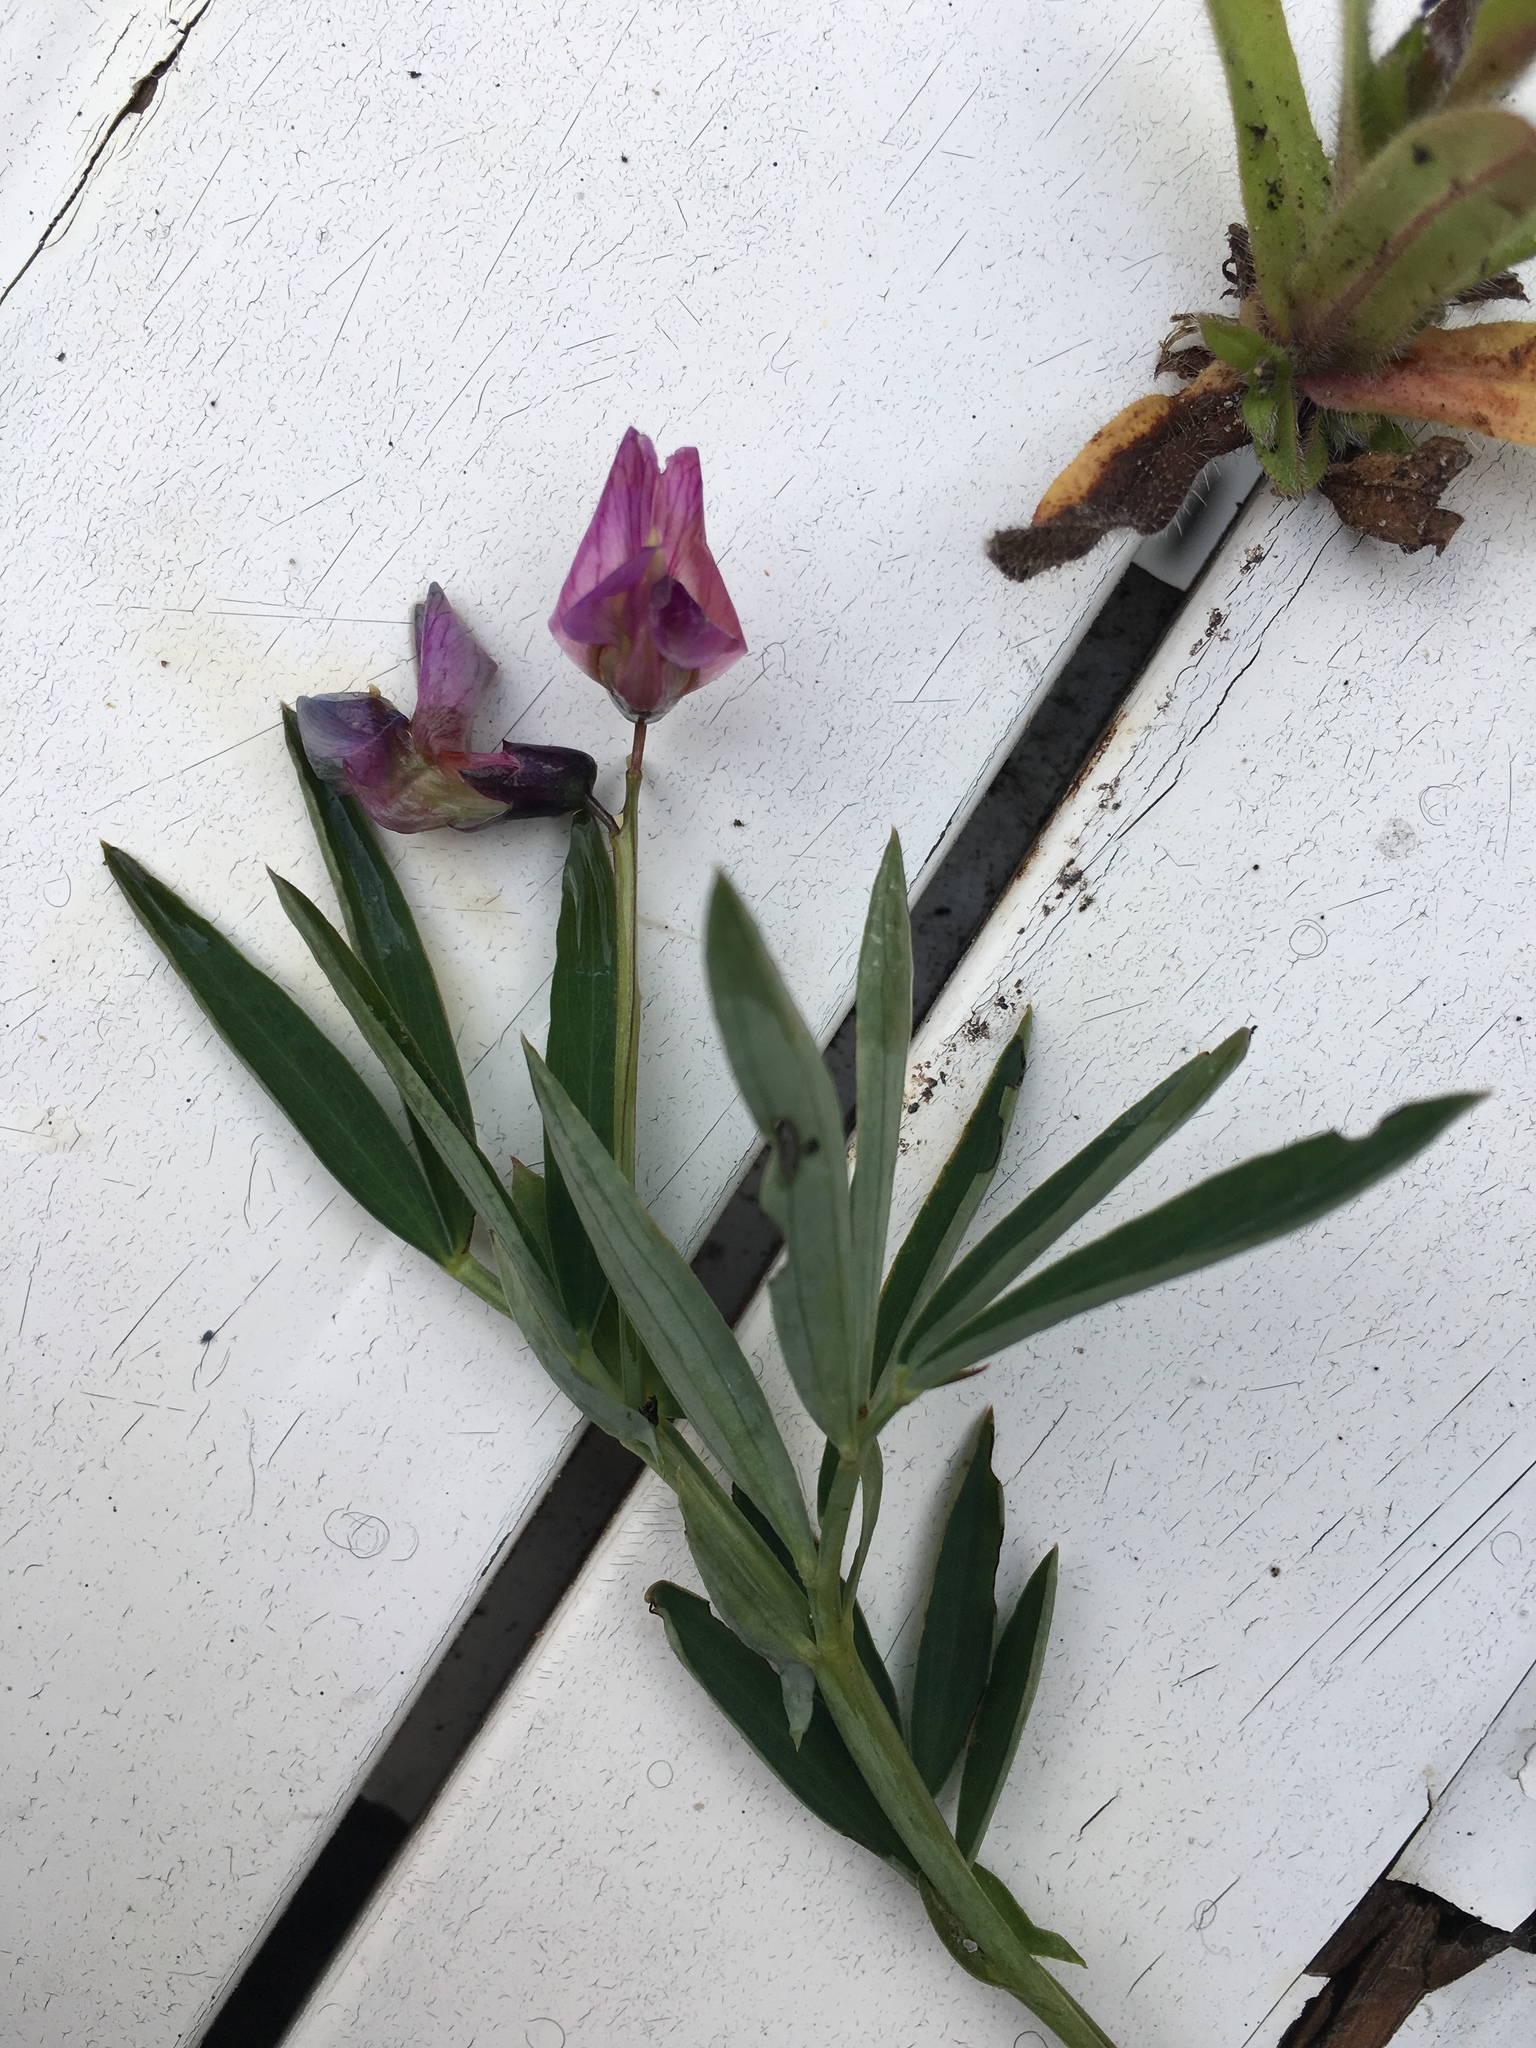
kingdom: Plantae
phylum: Tracheophyta
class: Magnoliopsida
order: Fabales
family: Fabaceae
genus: Lathyrus
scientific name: Lathyrus linifolius
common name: Bitter-vetch
